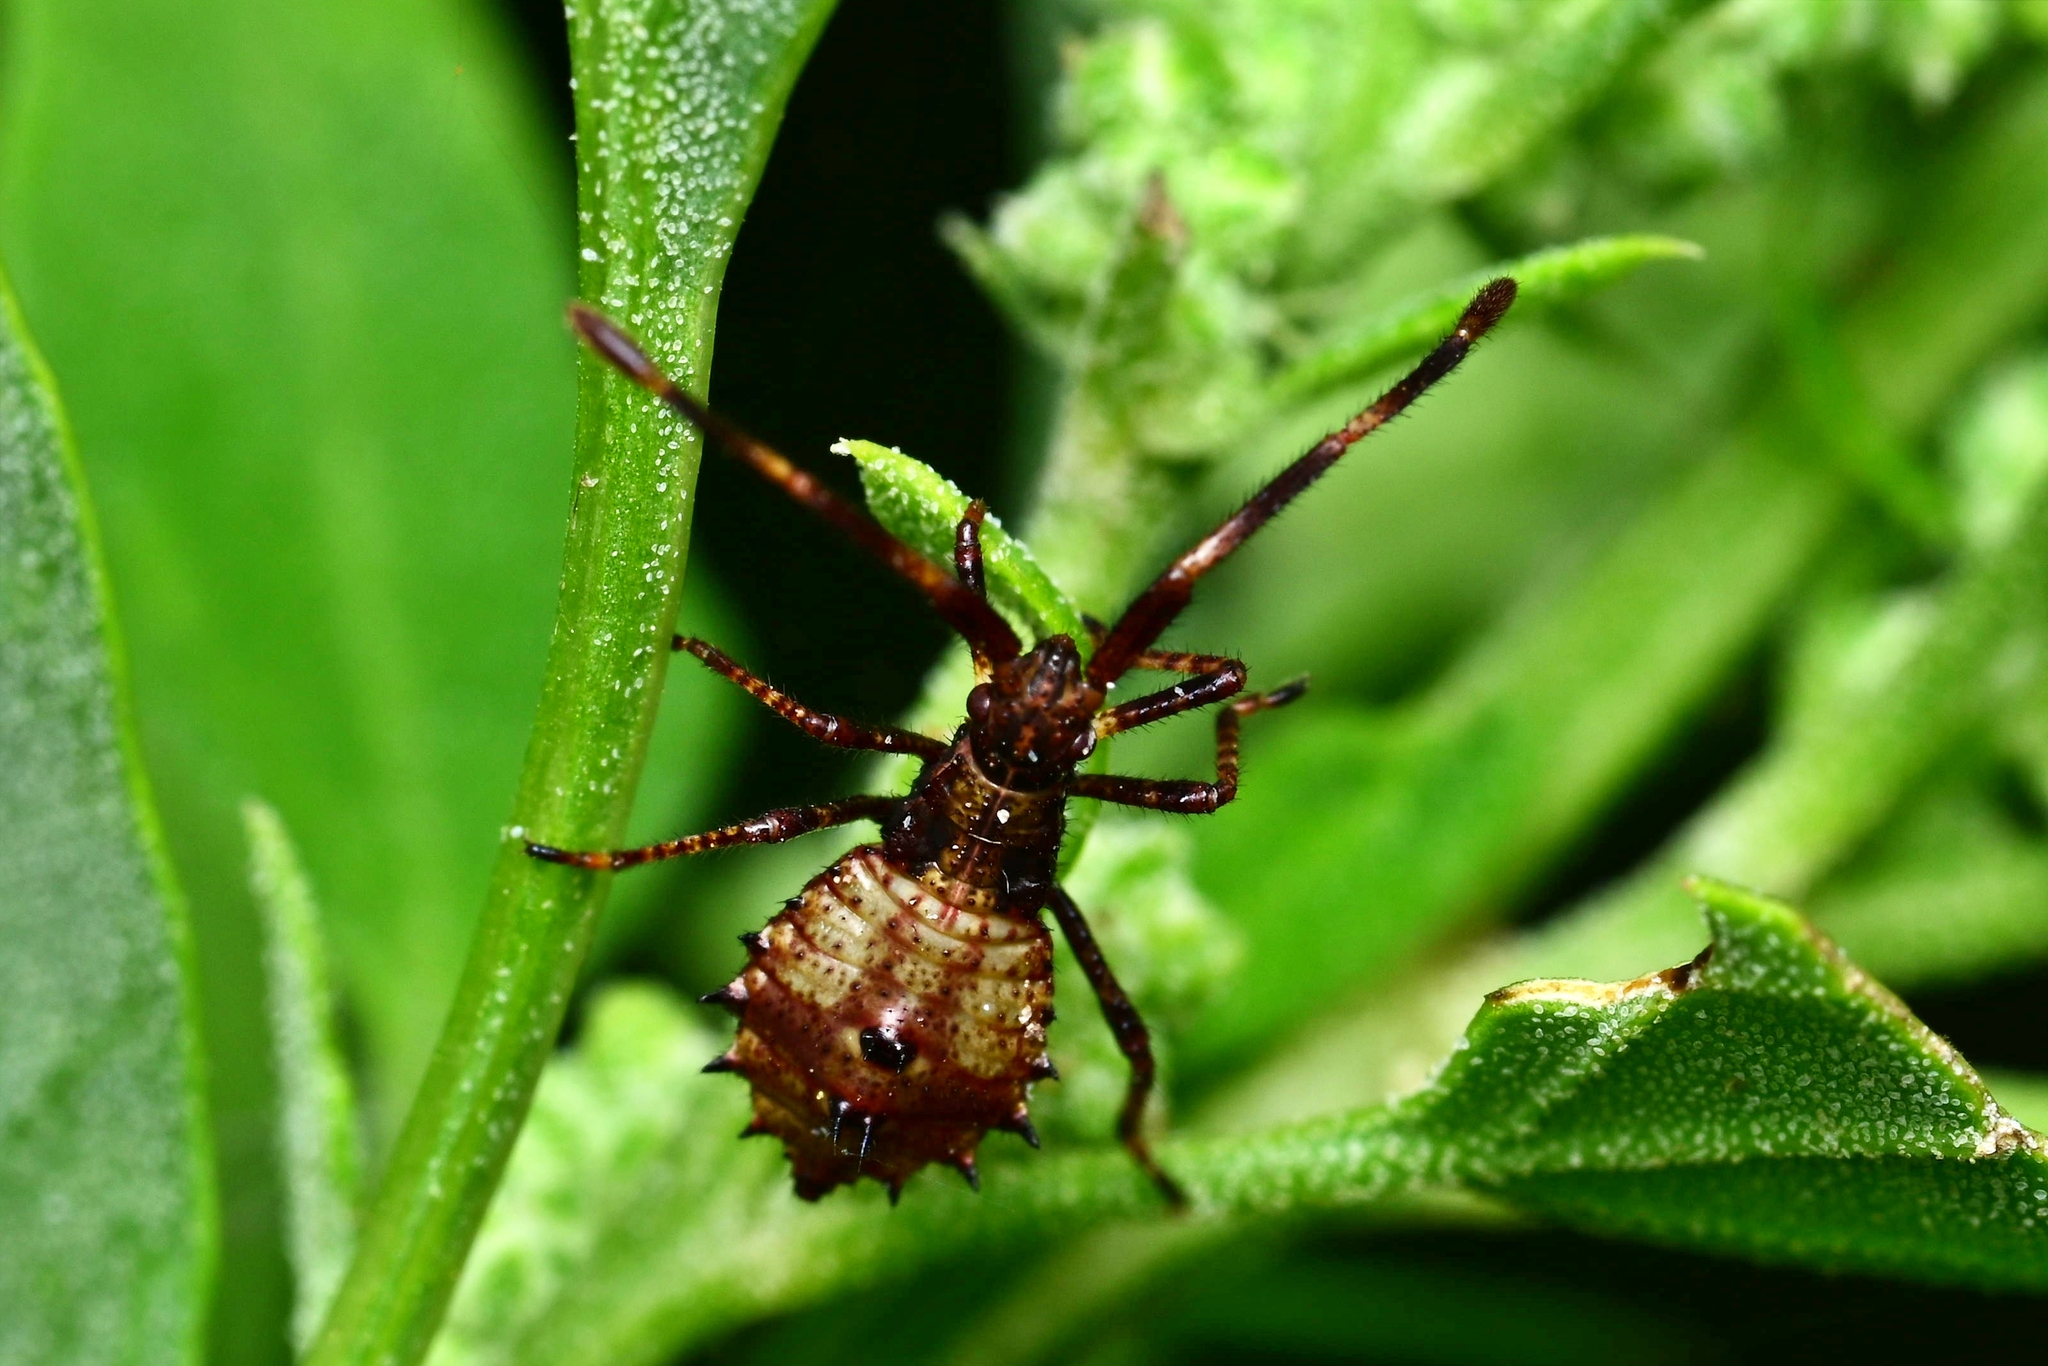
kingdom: Animalia
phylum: Arthropoda
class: Insecta
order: Hemiptera
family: Coreidae
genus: Coreus
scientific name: Coreus marginatus
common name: Dock bug
